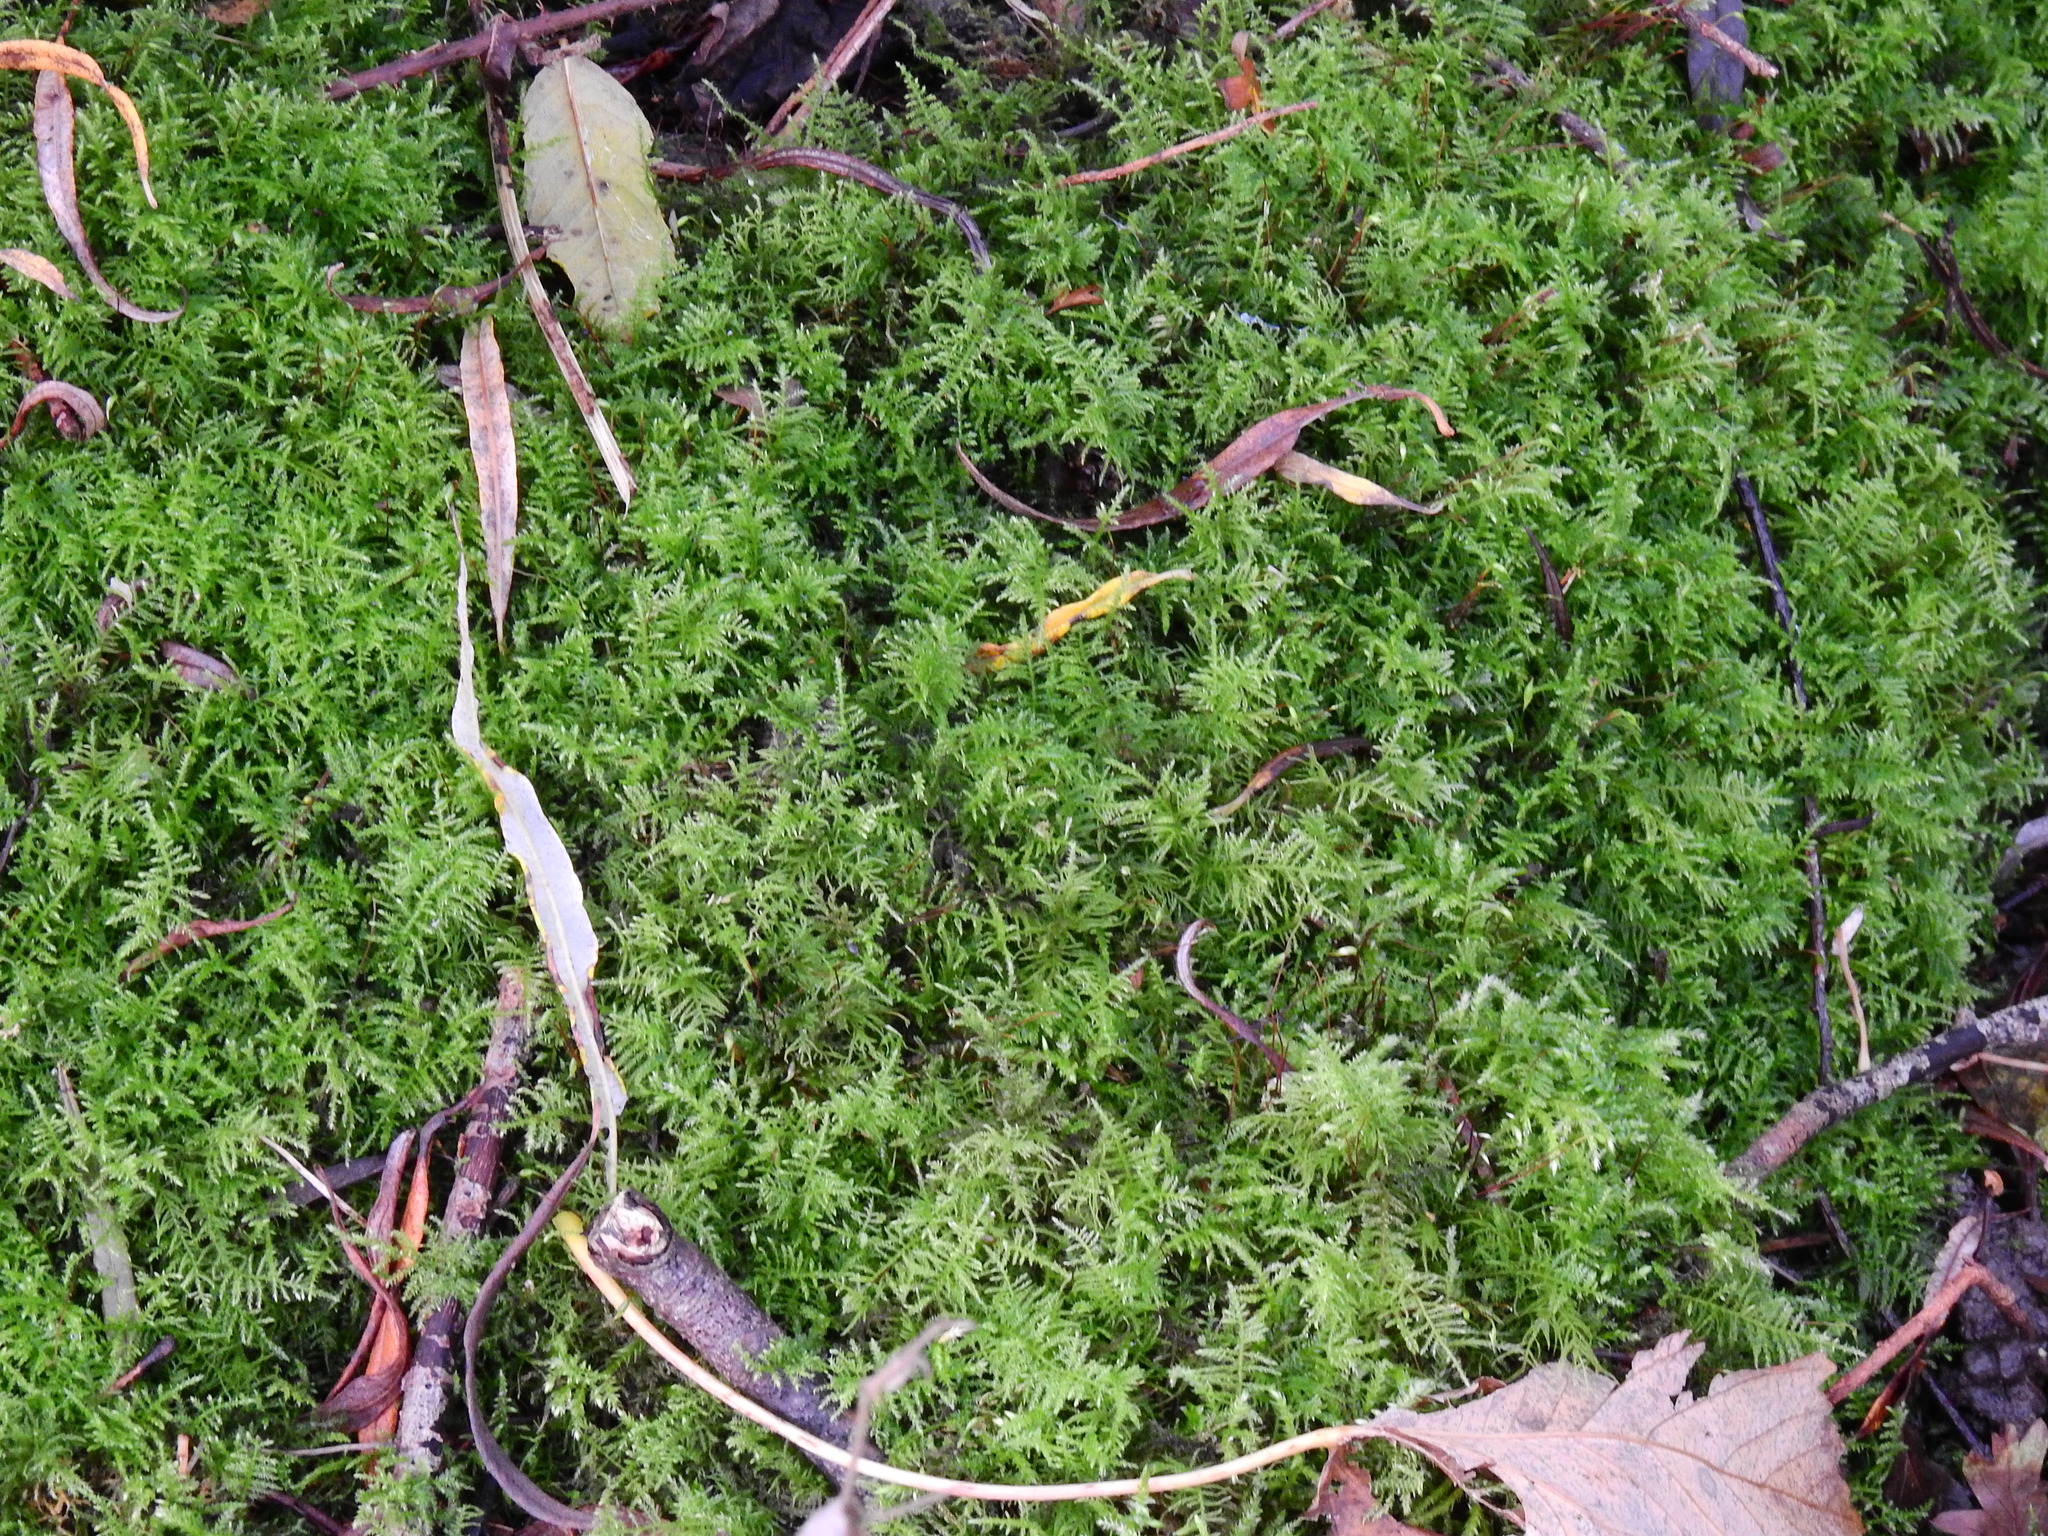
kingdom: Plantae
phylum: Bryophyta
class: Bryopsida
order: Hypnales
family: Brachytheciaceae
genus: Kindbergia
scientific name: Kindbergia praelonga
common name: Slender beaked moss
